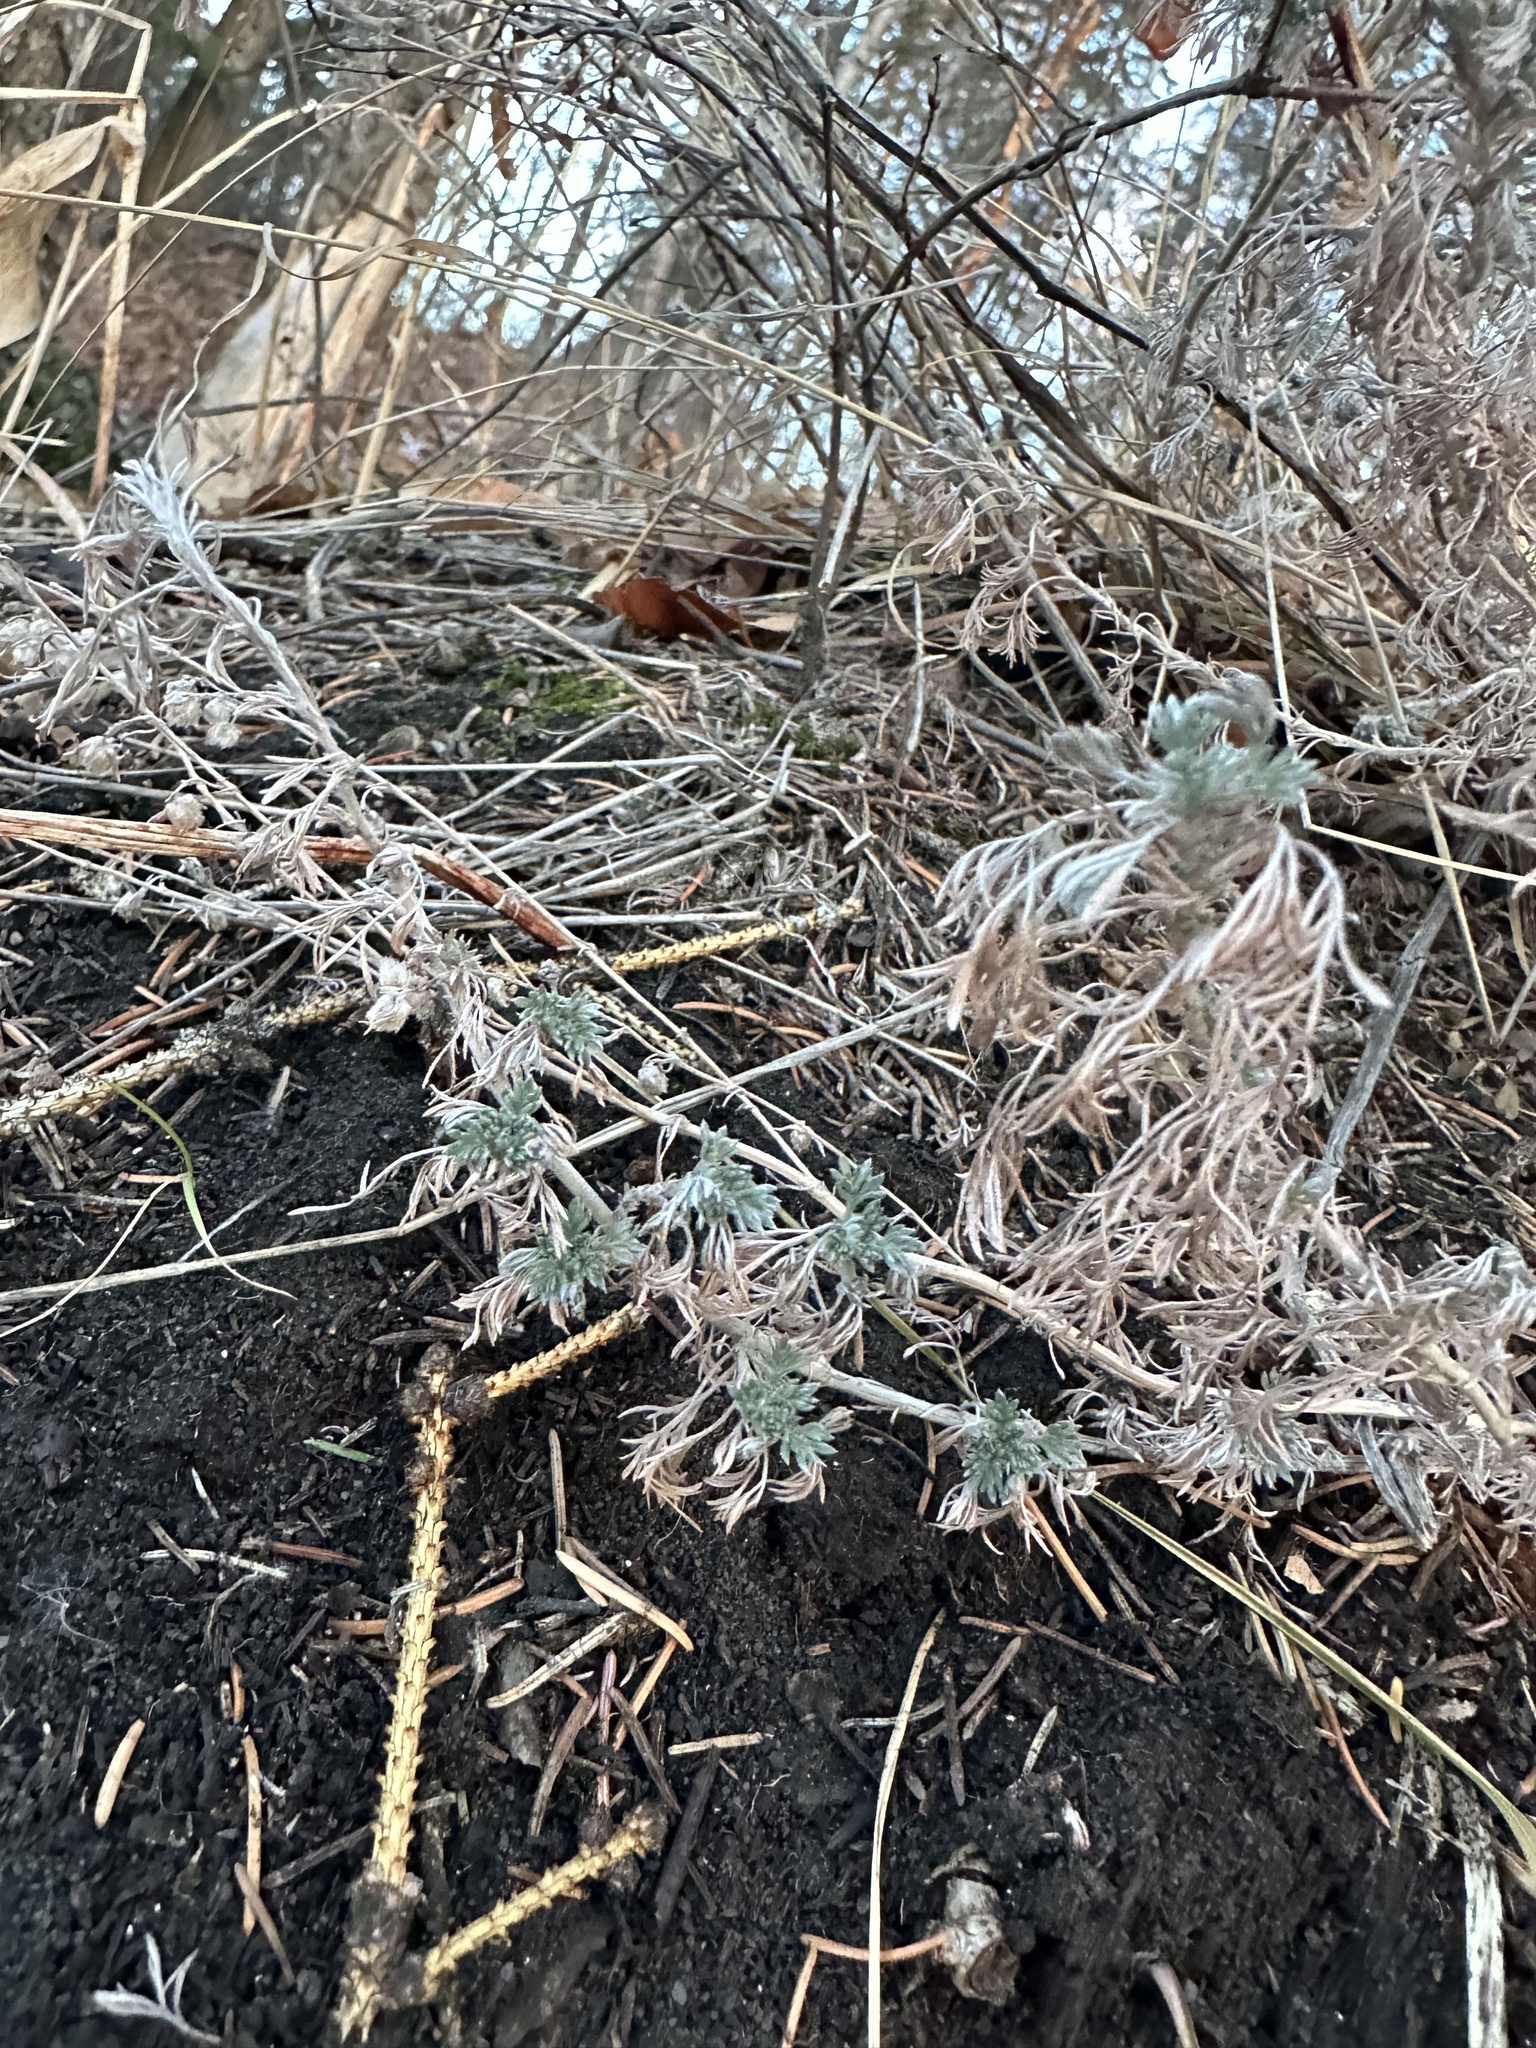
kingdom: Plantae
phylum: Tracheophyta
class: Magnoliopsida
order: Asterales
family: Asteraceae
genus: Artemisia
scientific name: Artemisia frigida
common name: Prairie sagewort
